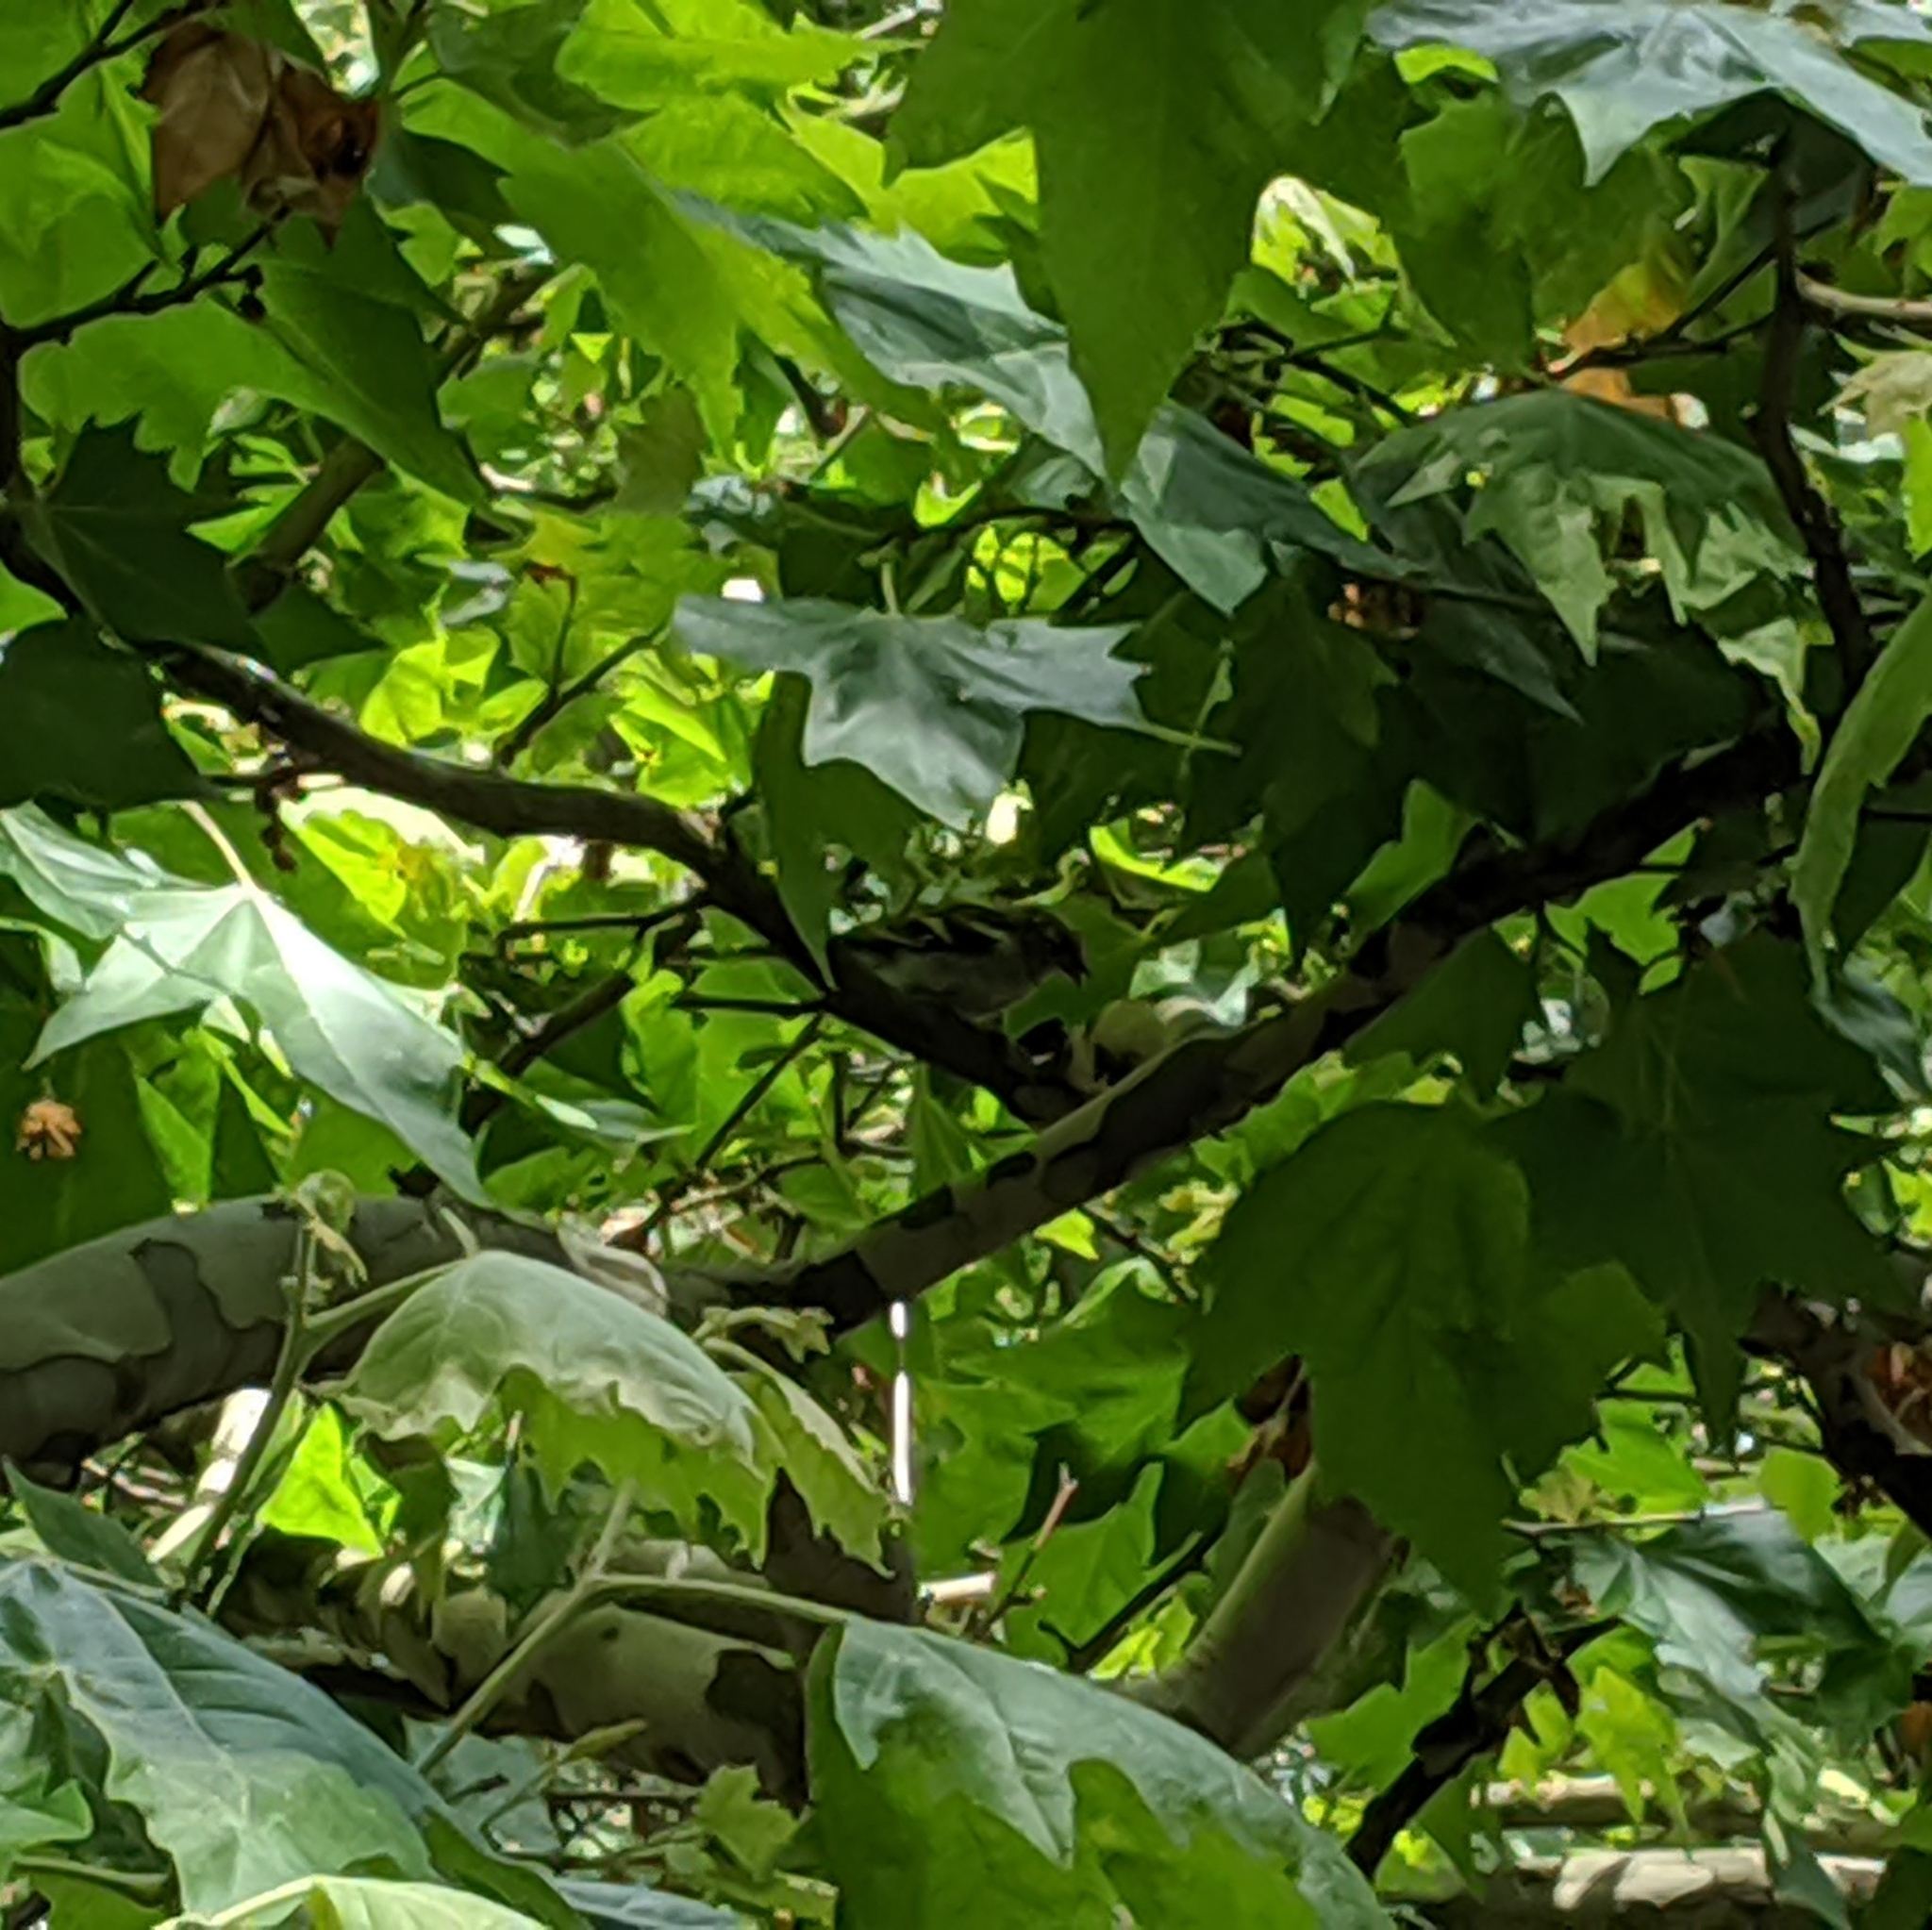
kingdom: Animalia
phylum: Chordata
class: Aves
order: Passeriformes
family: Fringillidae
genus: Fringilla
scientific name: Fringilla coelebs
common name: Common chaffinch
